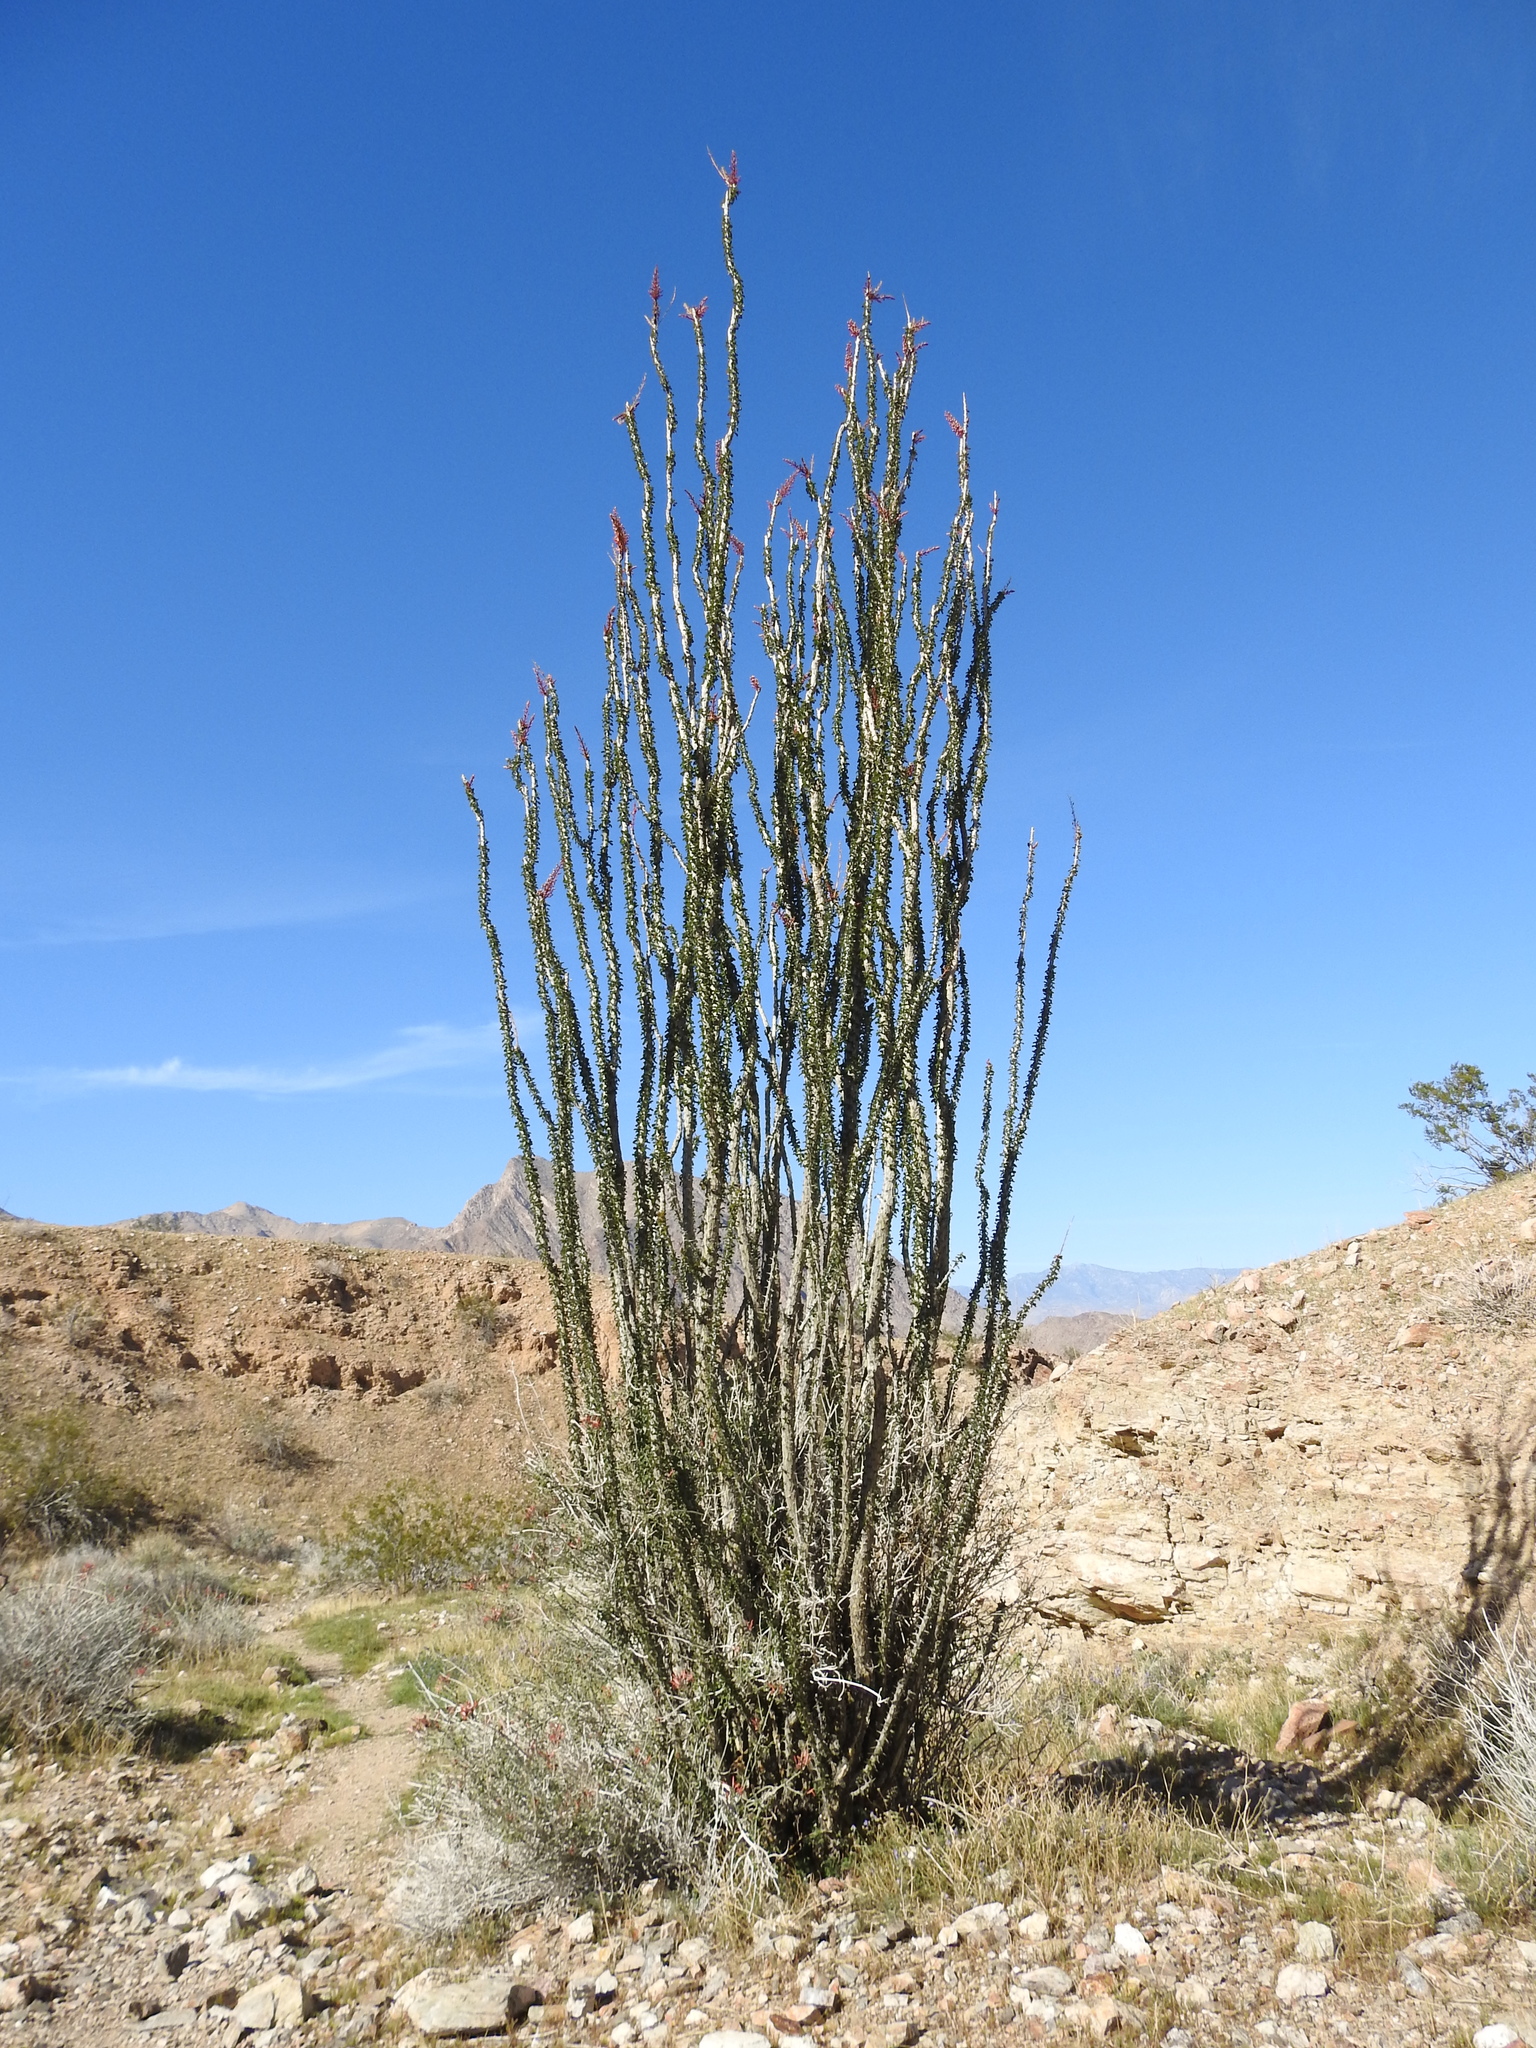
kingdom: Plantae
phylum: Tracheophyta
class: Magnoliopsida
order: Ericales
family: Fouquieriaceae
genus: Fouquieria
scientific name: Fouquieria splendens
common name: Vine-cactus
